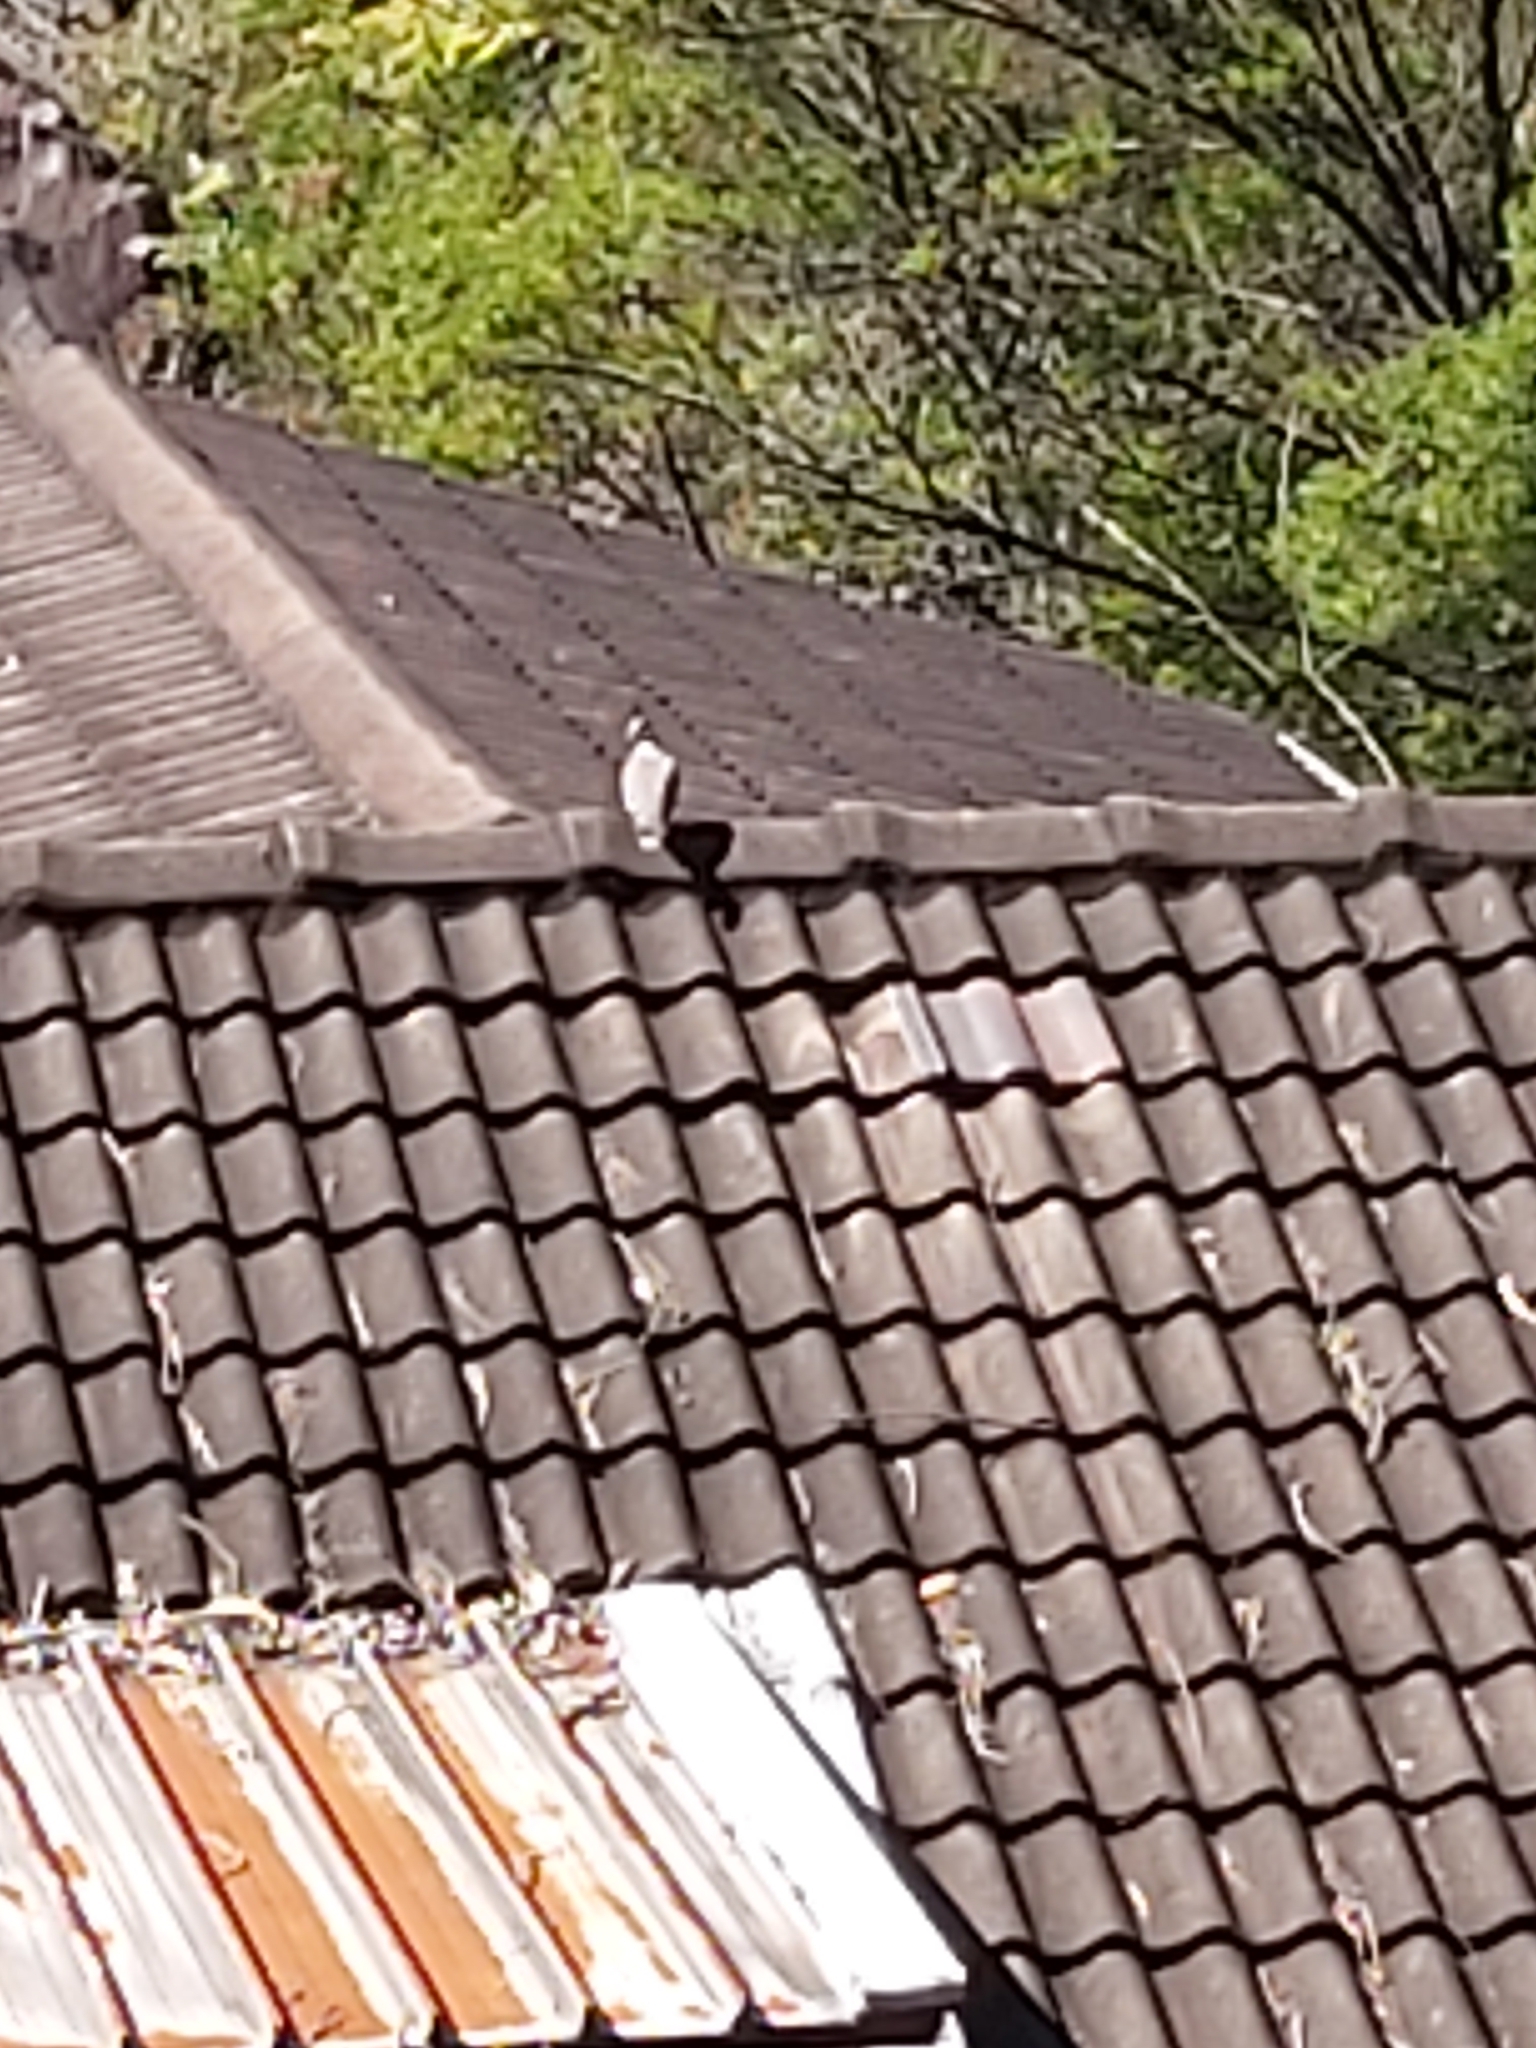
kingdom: Animalia
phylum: Chordata
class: Aves
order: Columbiformes
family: Columbidae
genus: Ocyphaps
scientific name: Ocyphaps lophotes
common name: Crested pigeon
